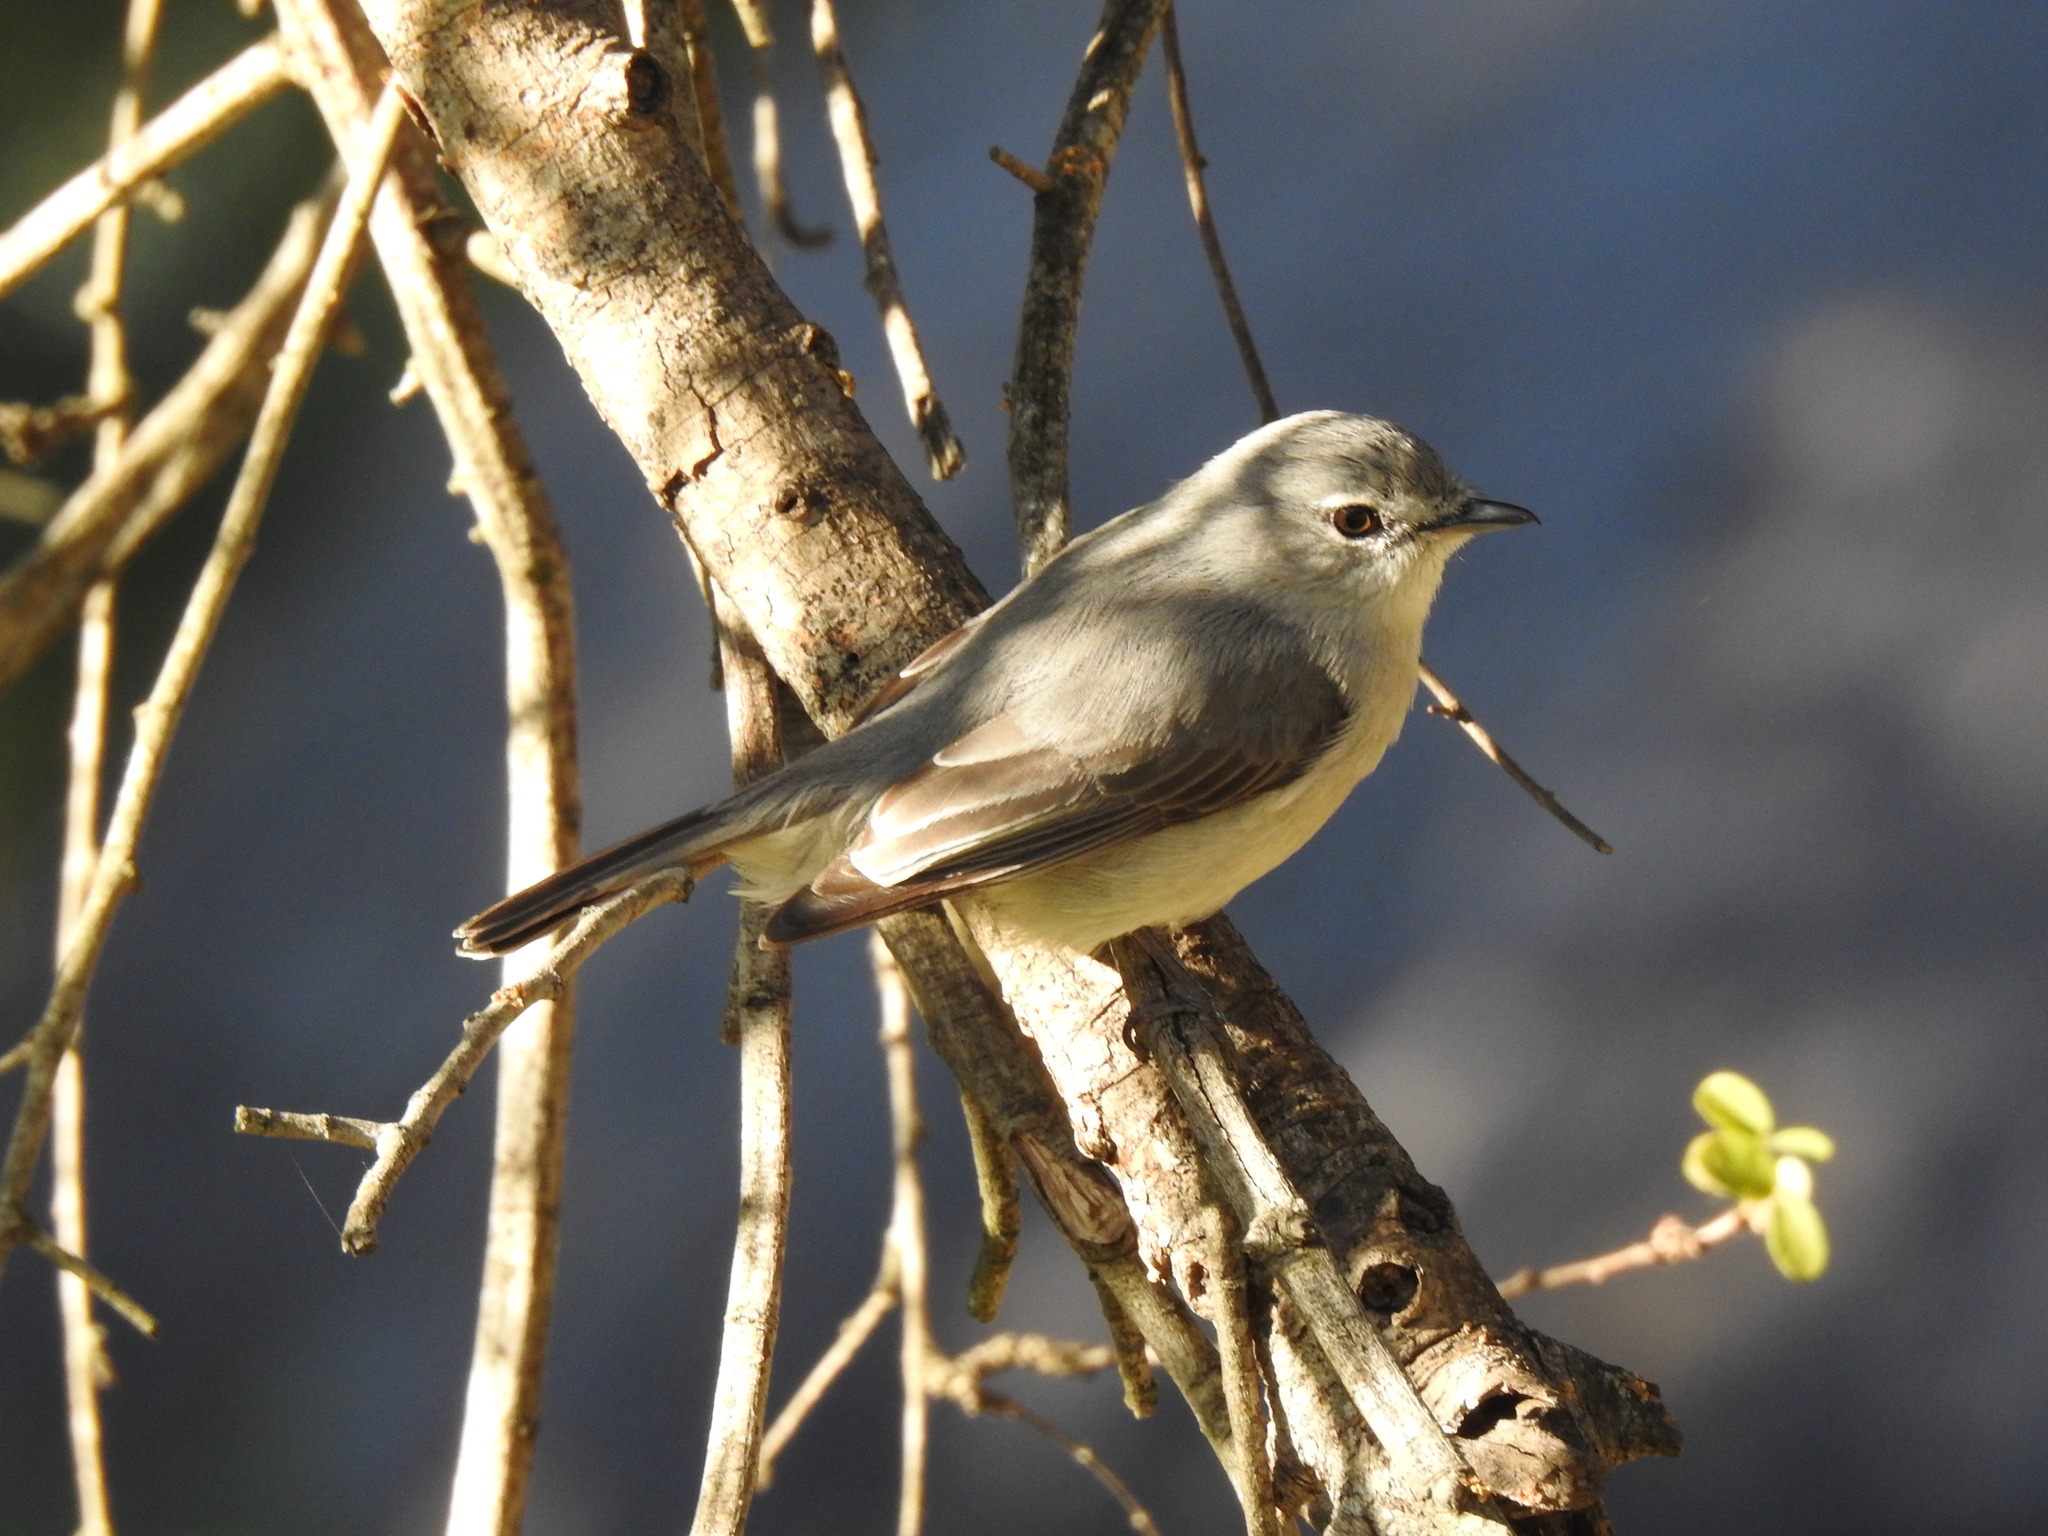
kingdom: Animalia
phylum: Chordata
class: Aves
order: Passeriformes
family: Muscicapidae
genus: Muscicapa
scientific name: Muscicapa caerulescens
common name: Ashy flycatcher
